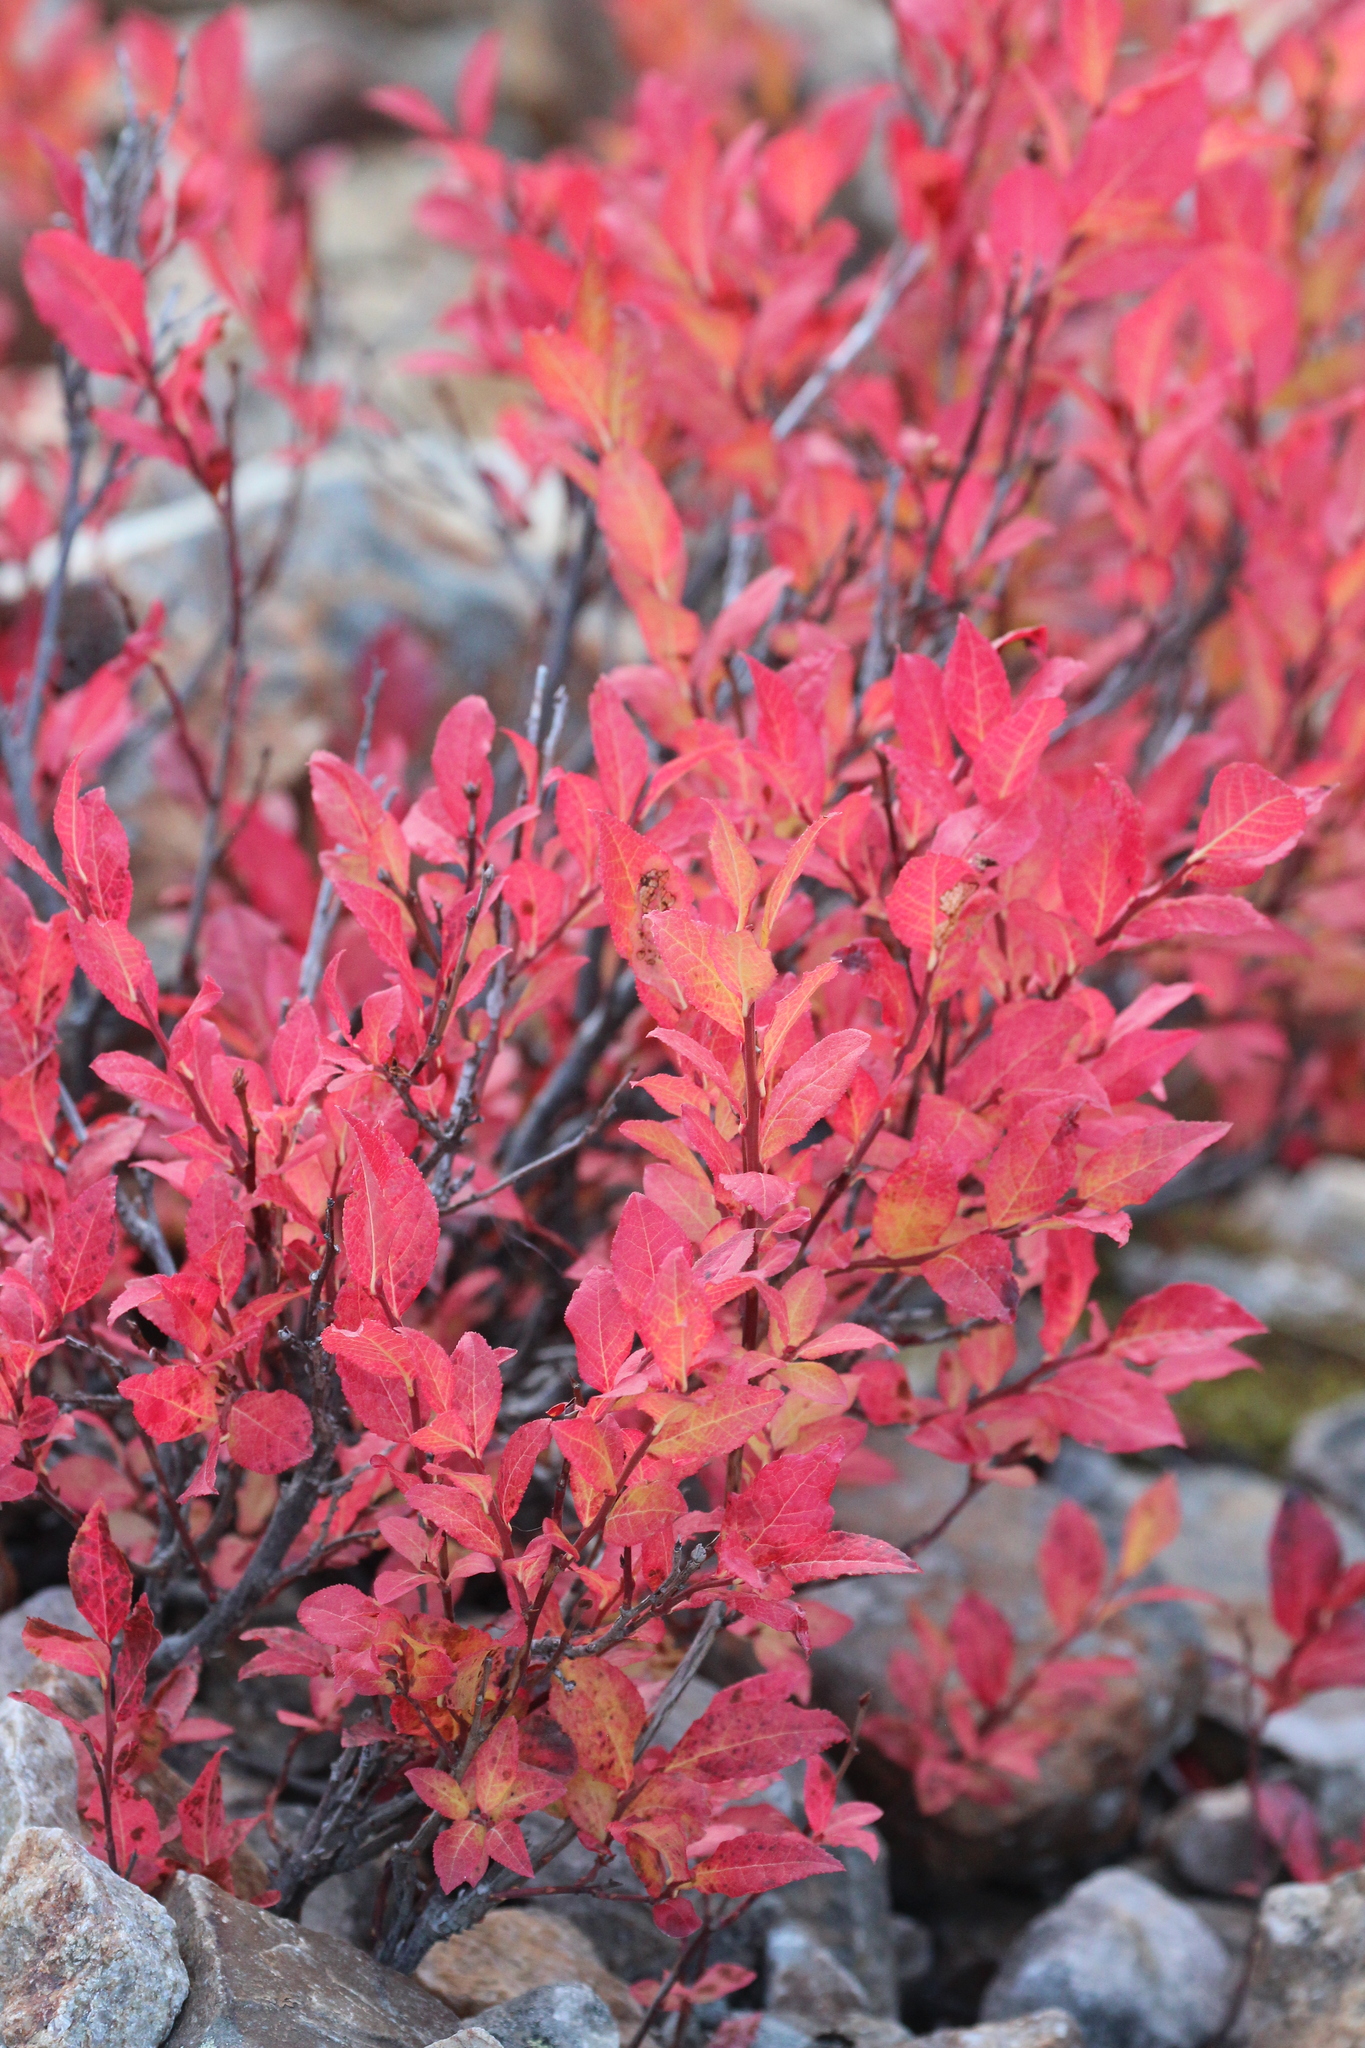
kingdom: Plantae
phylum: Tracheophyta
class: Magnoliopsida
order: Ericales
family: Ericaceae
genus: Vaccinium
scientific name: Vaccinium membranaceum
